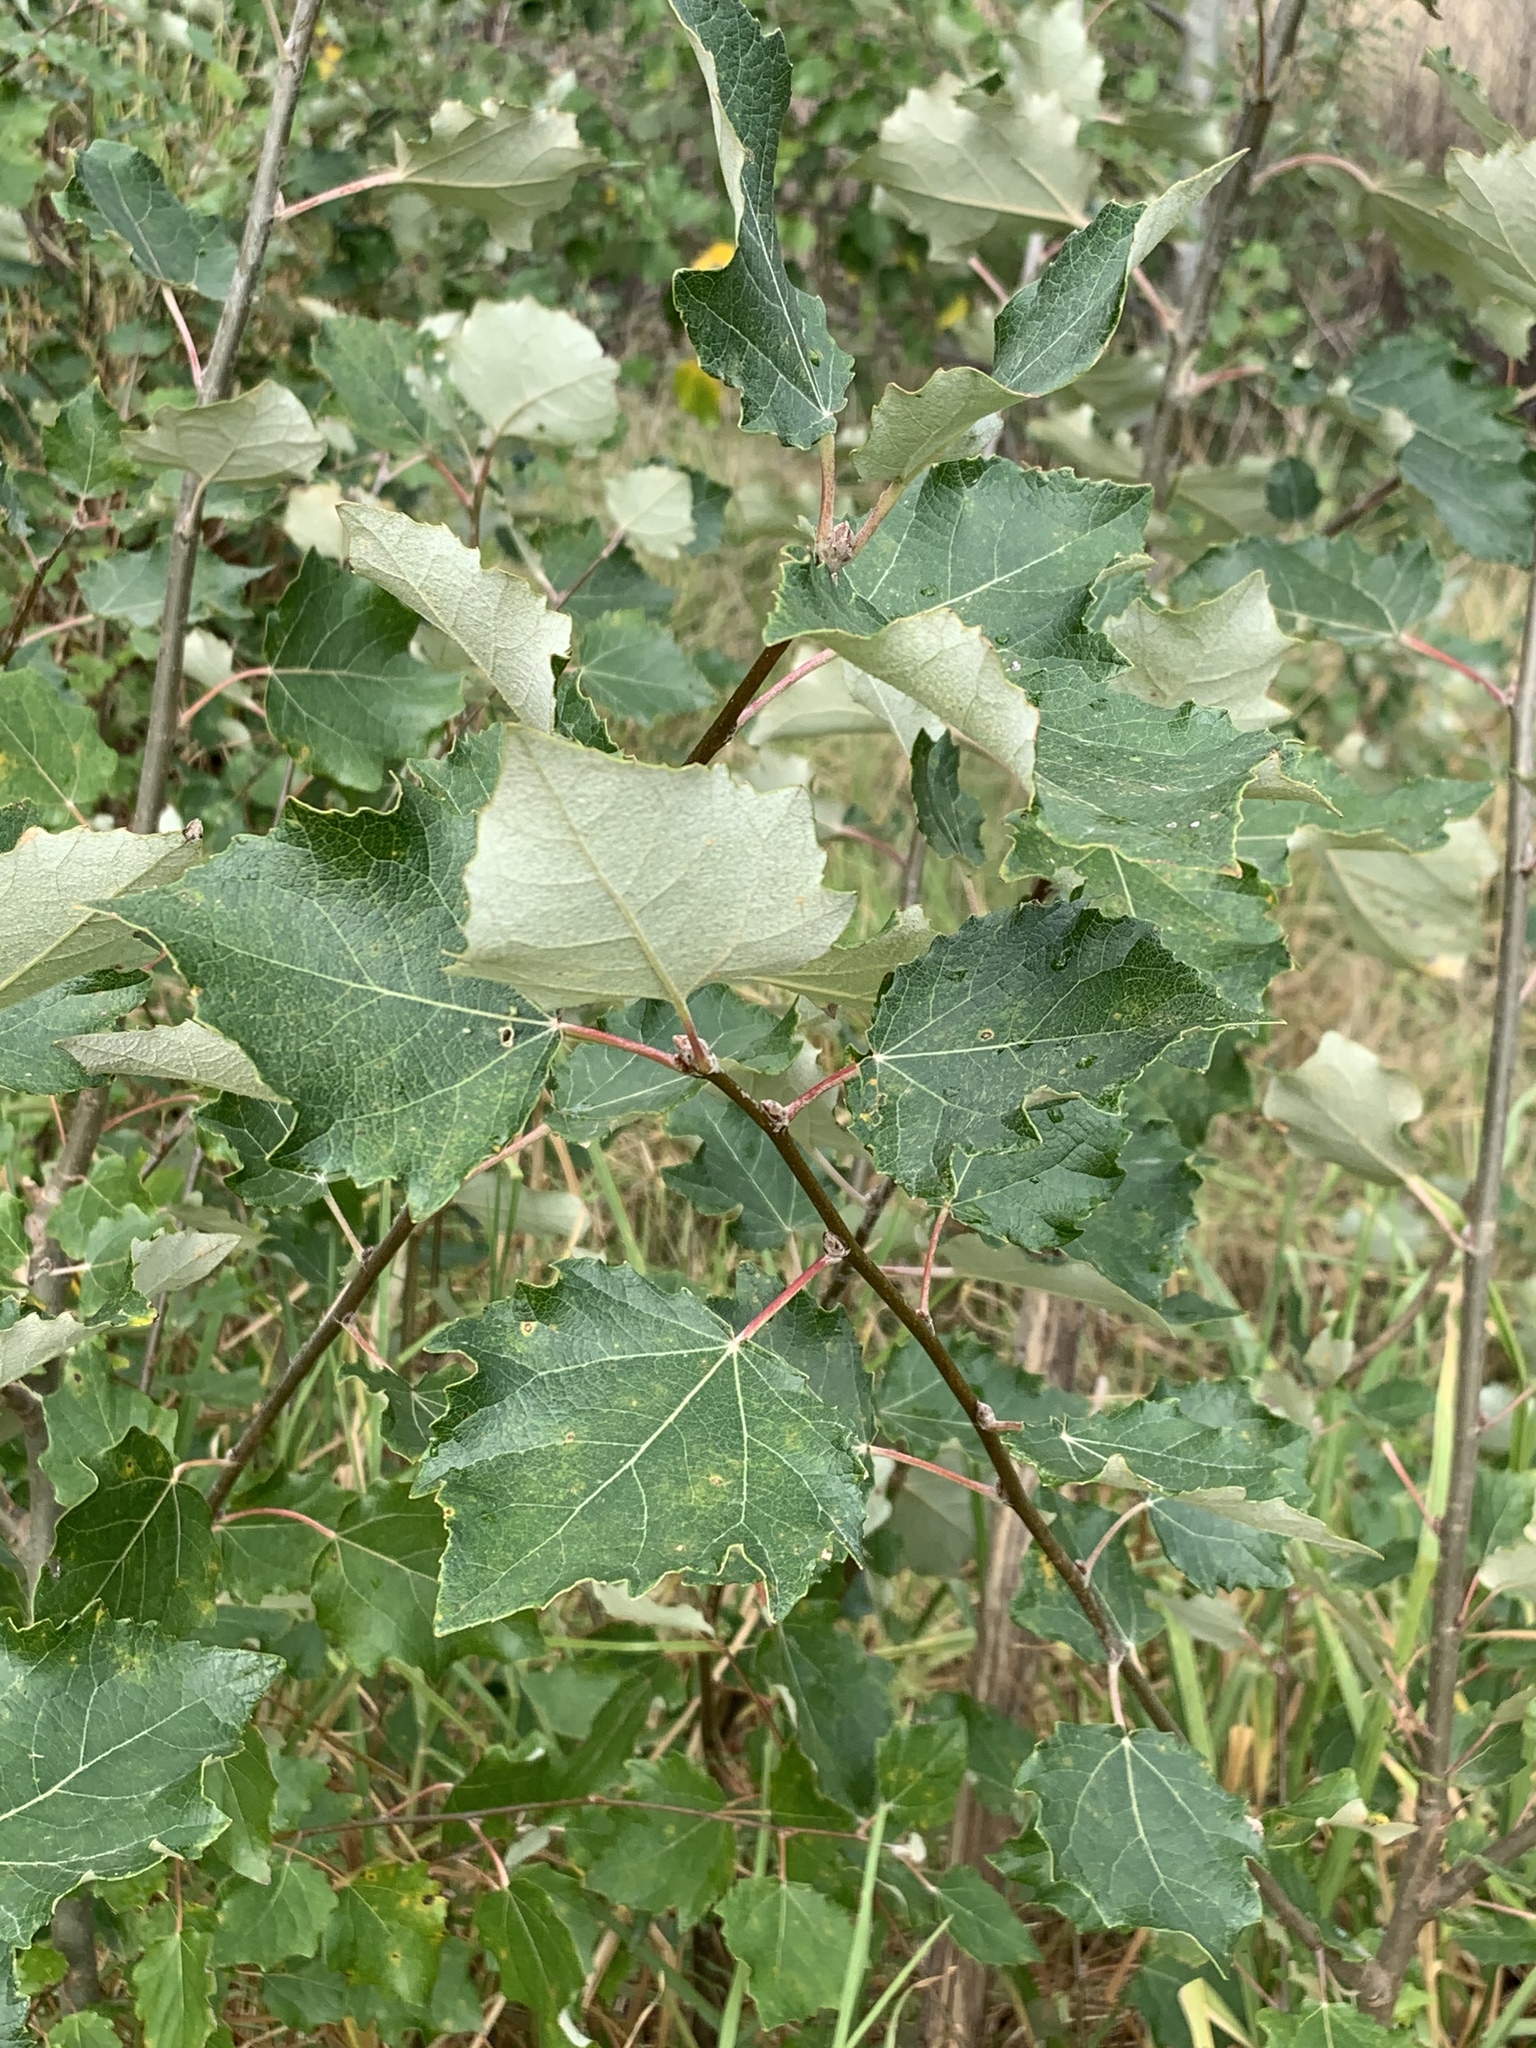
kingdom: Plantae
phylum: Tracheophyta
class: Magnoliopsida
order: Malpighiales
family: Salicaceae
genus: Populus
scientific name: Populus canescens
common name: Gray poplar
